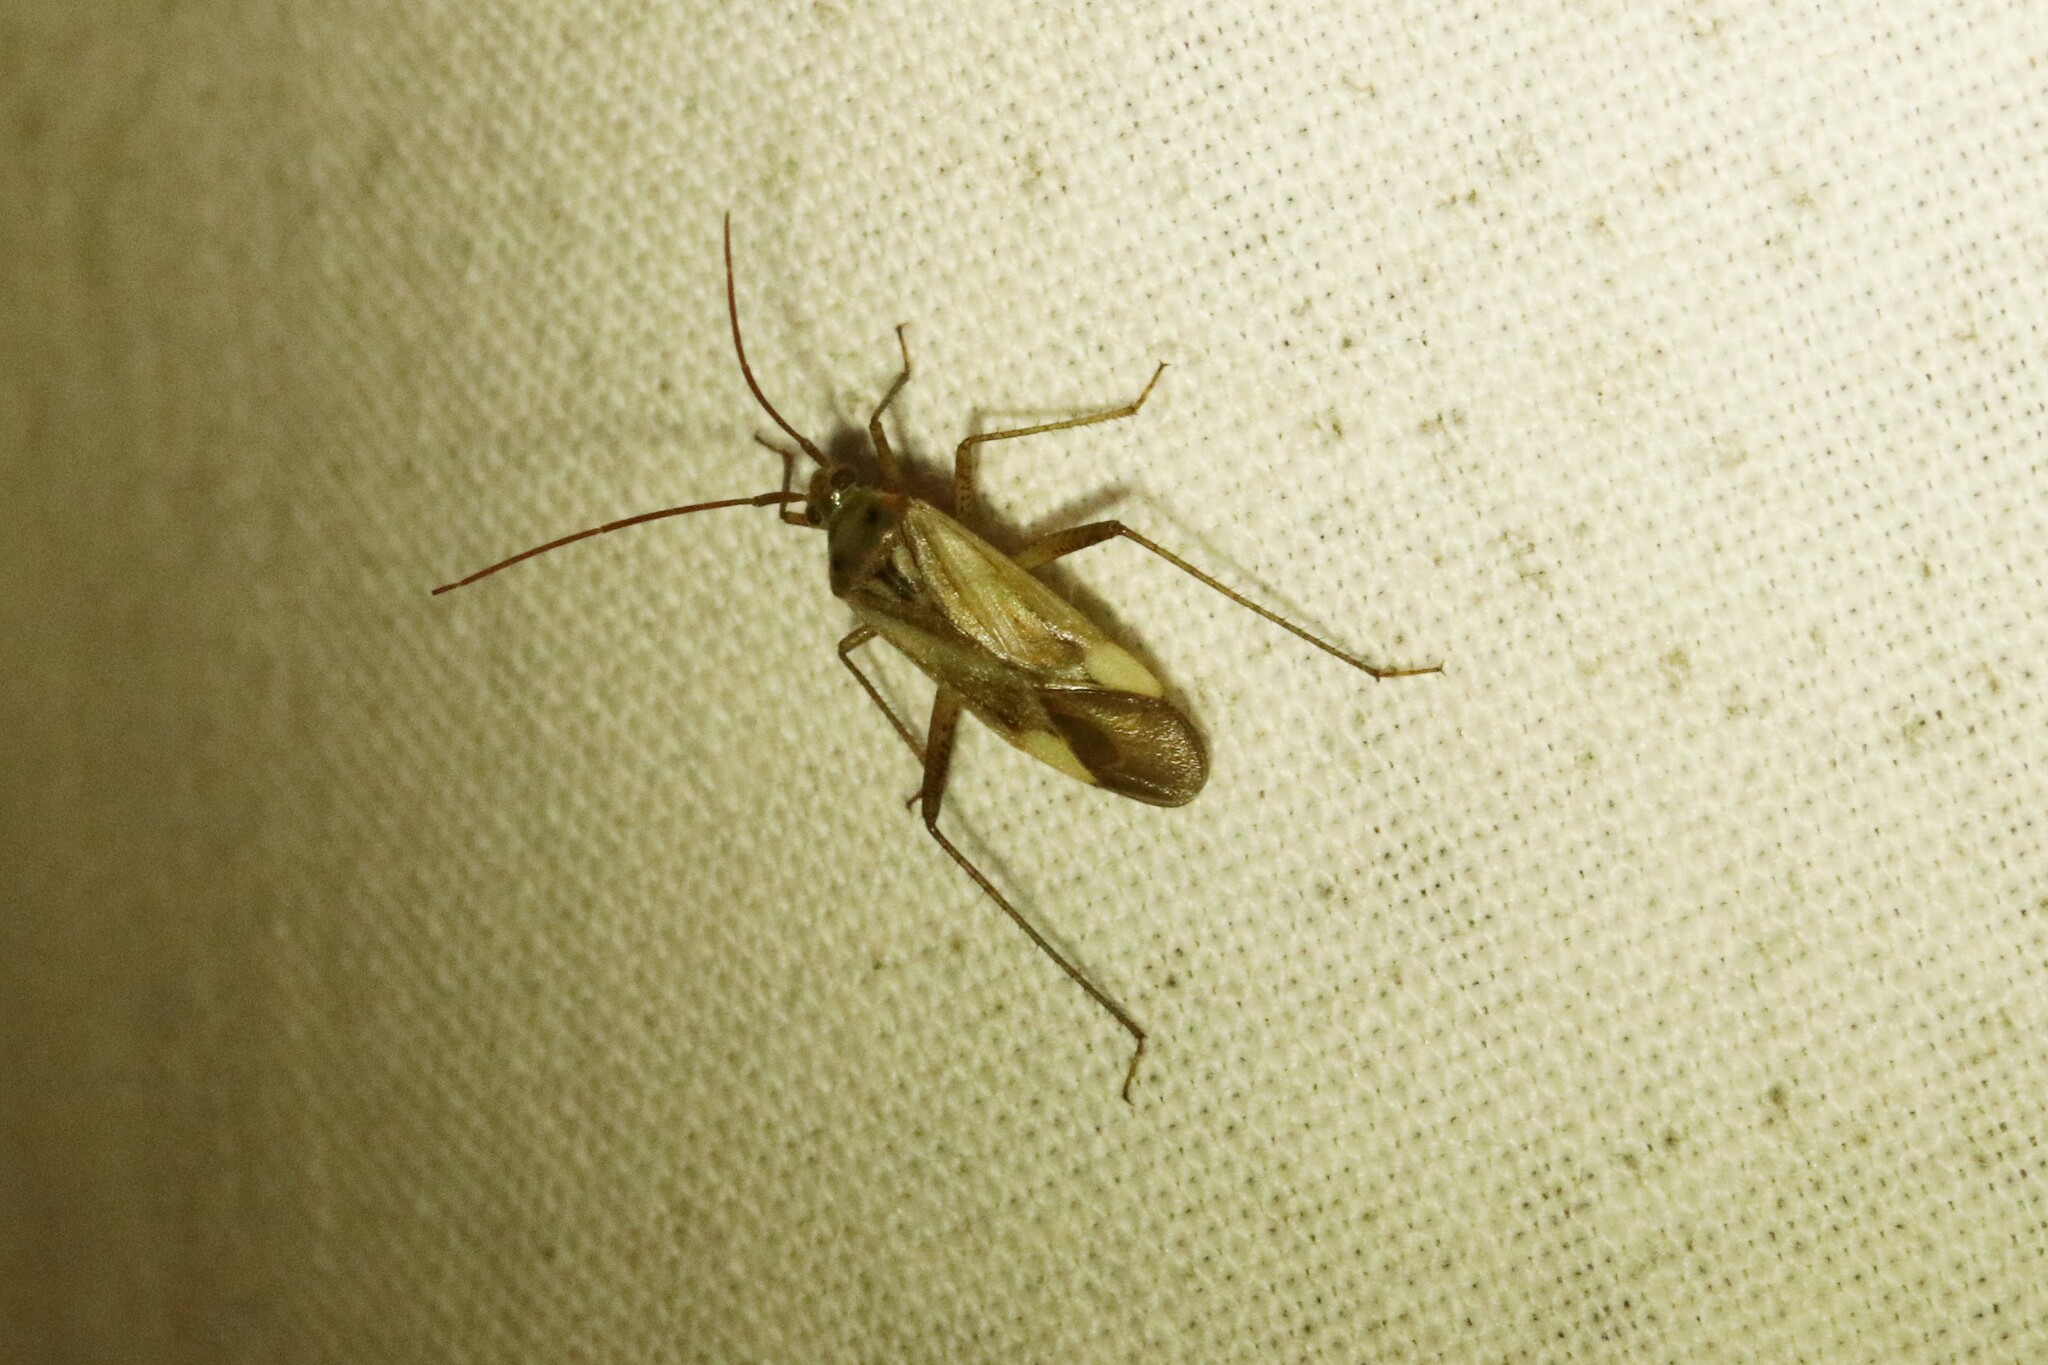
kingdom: Animalia
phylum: Arthropoda
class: Insecta
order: Hemiptera
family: Miridae
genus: Adelphocoris
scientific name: Adelphocoris lineolatus
